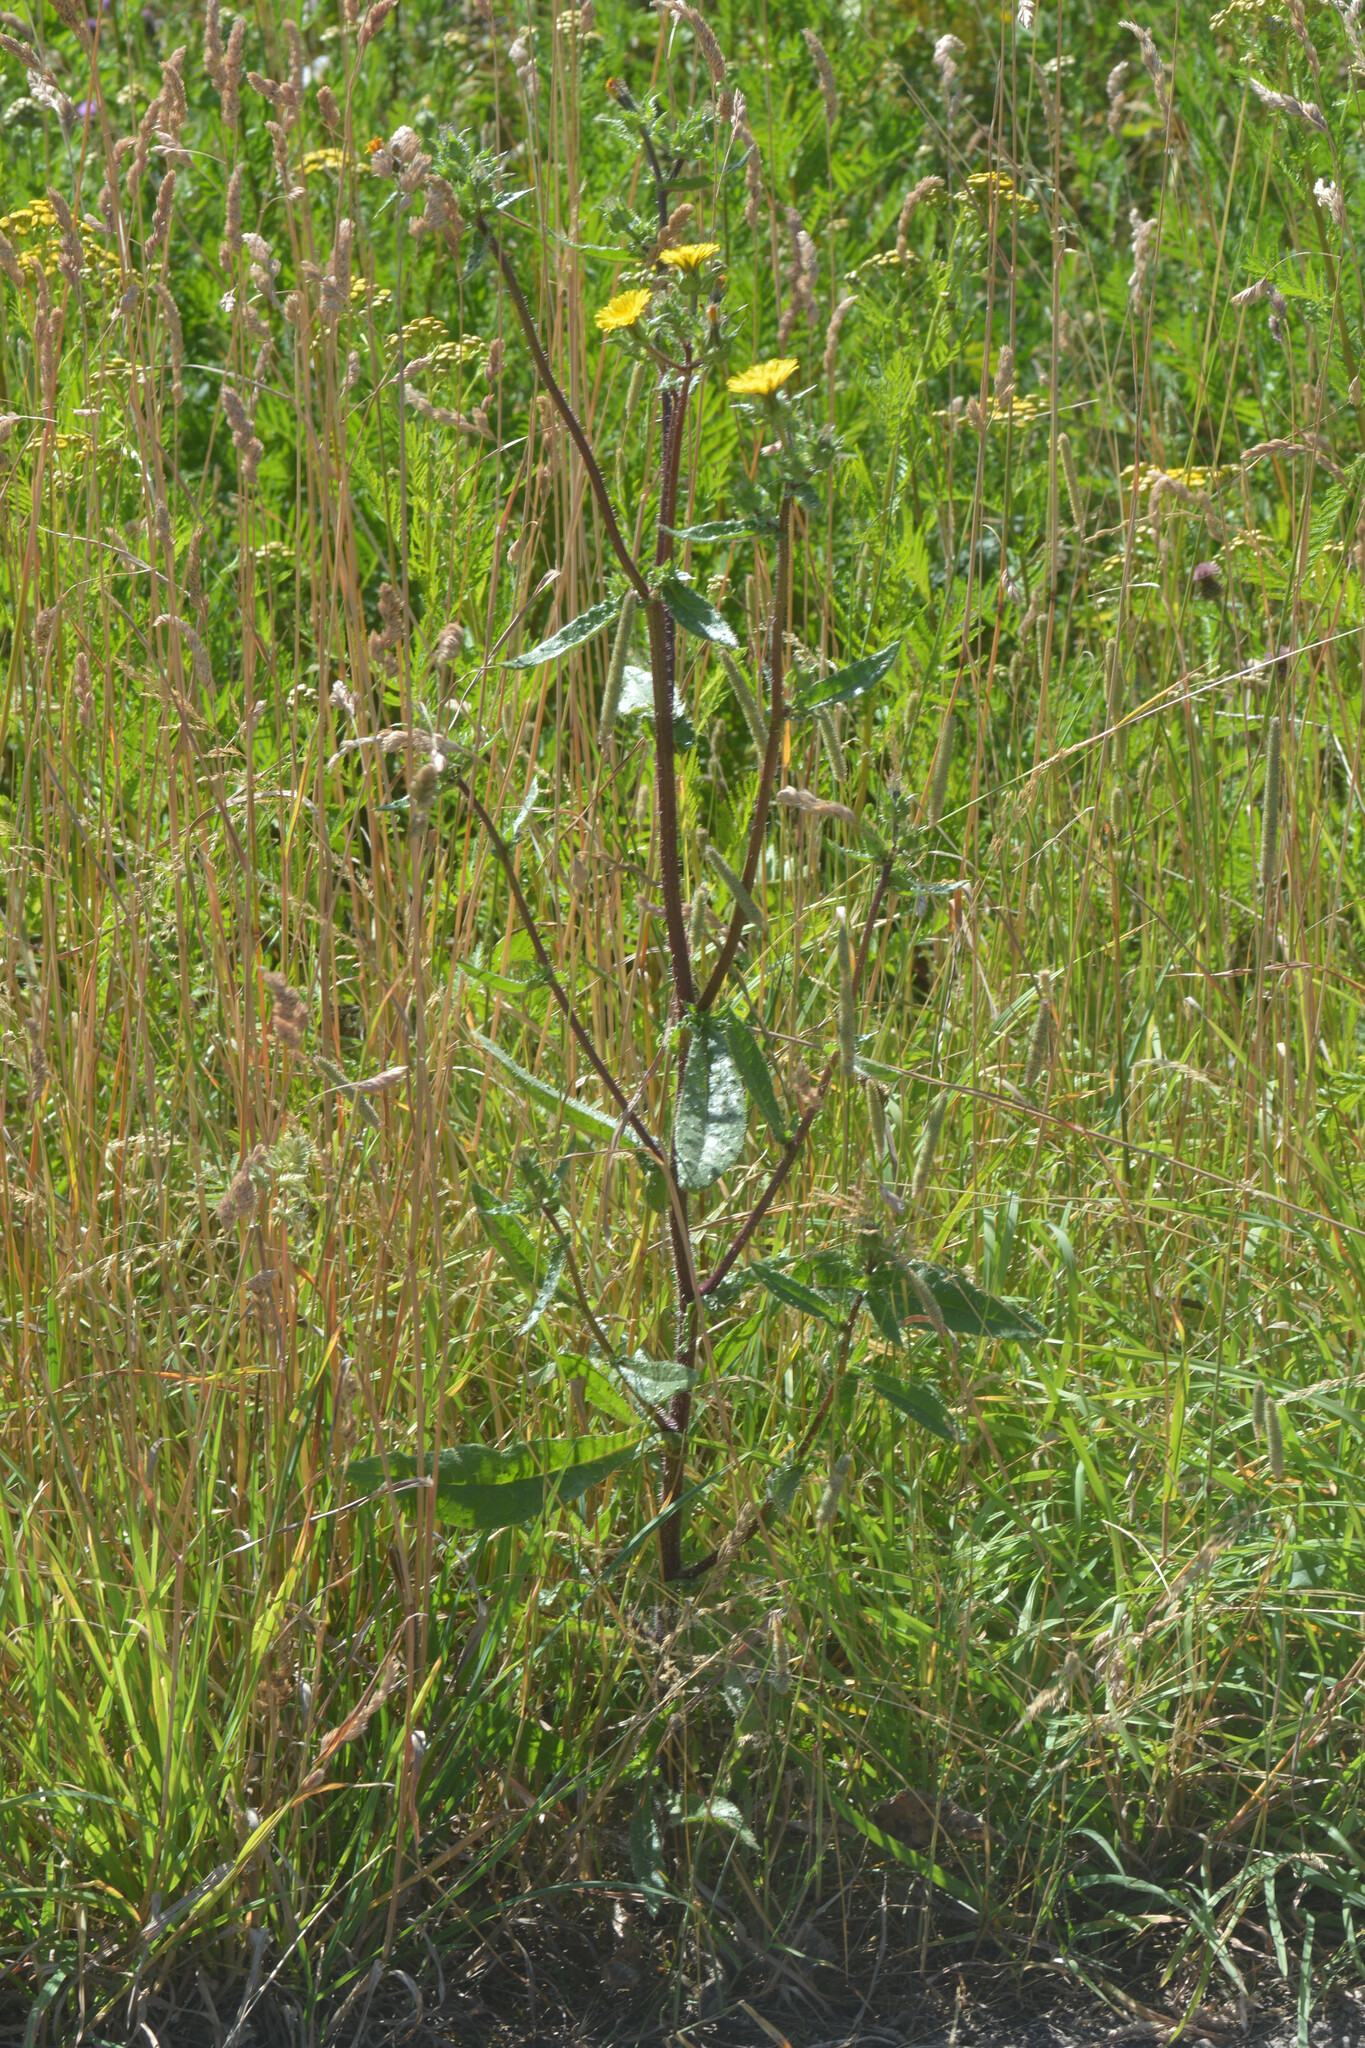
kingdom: Plantae
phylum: Tracheophyta
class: Magnoliopsida
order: Asterales
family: Asteraceae
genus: Helminthotheca
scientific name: Helminthotheca echioides
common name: Ox-tongue
